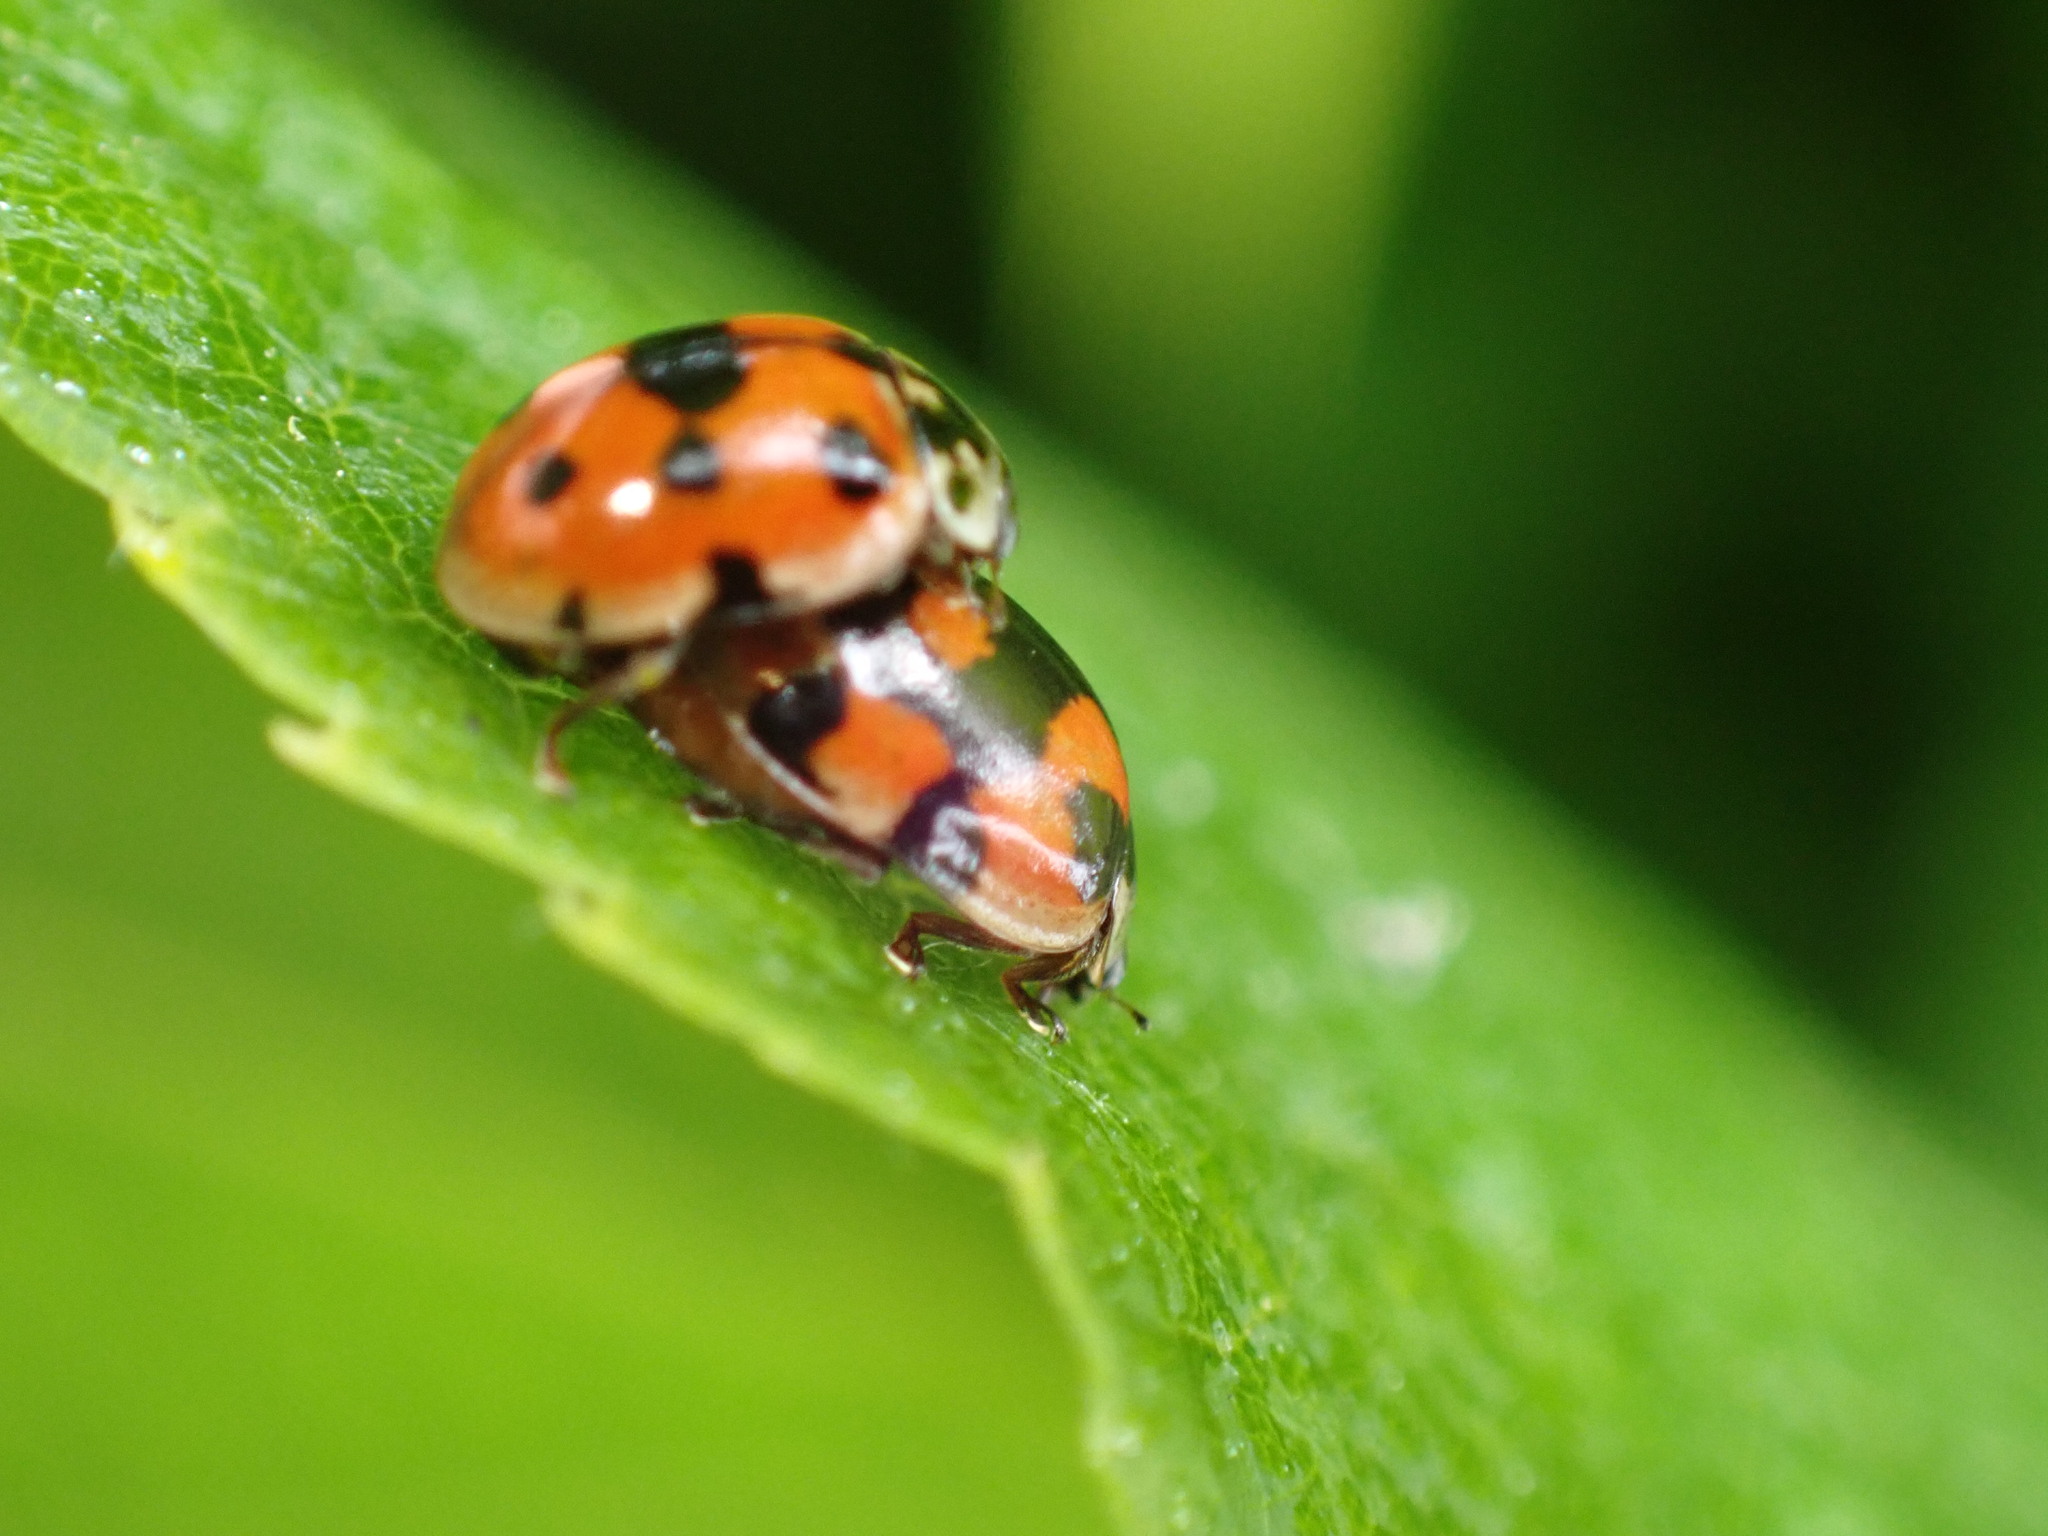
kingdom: Animalia
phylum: Arthropoda
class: Insecta
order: Coleoptera
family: Coccinellidae
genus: Adalia
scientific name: Adalia decempunctata
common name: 10-spot ladybird
